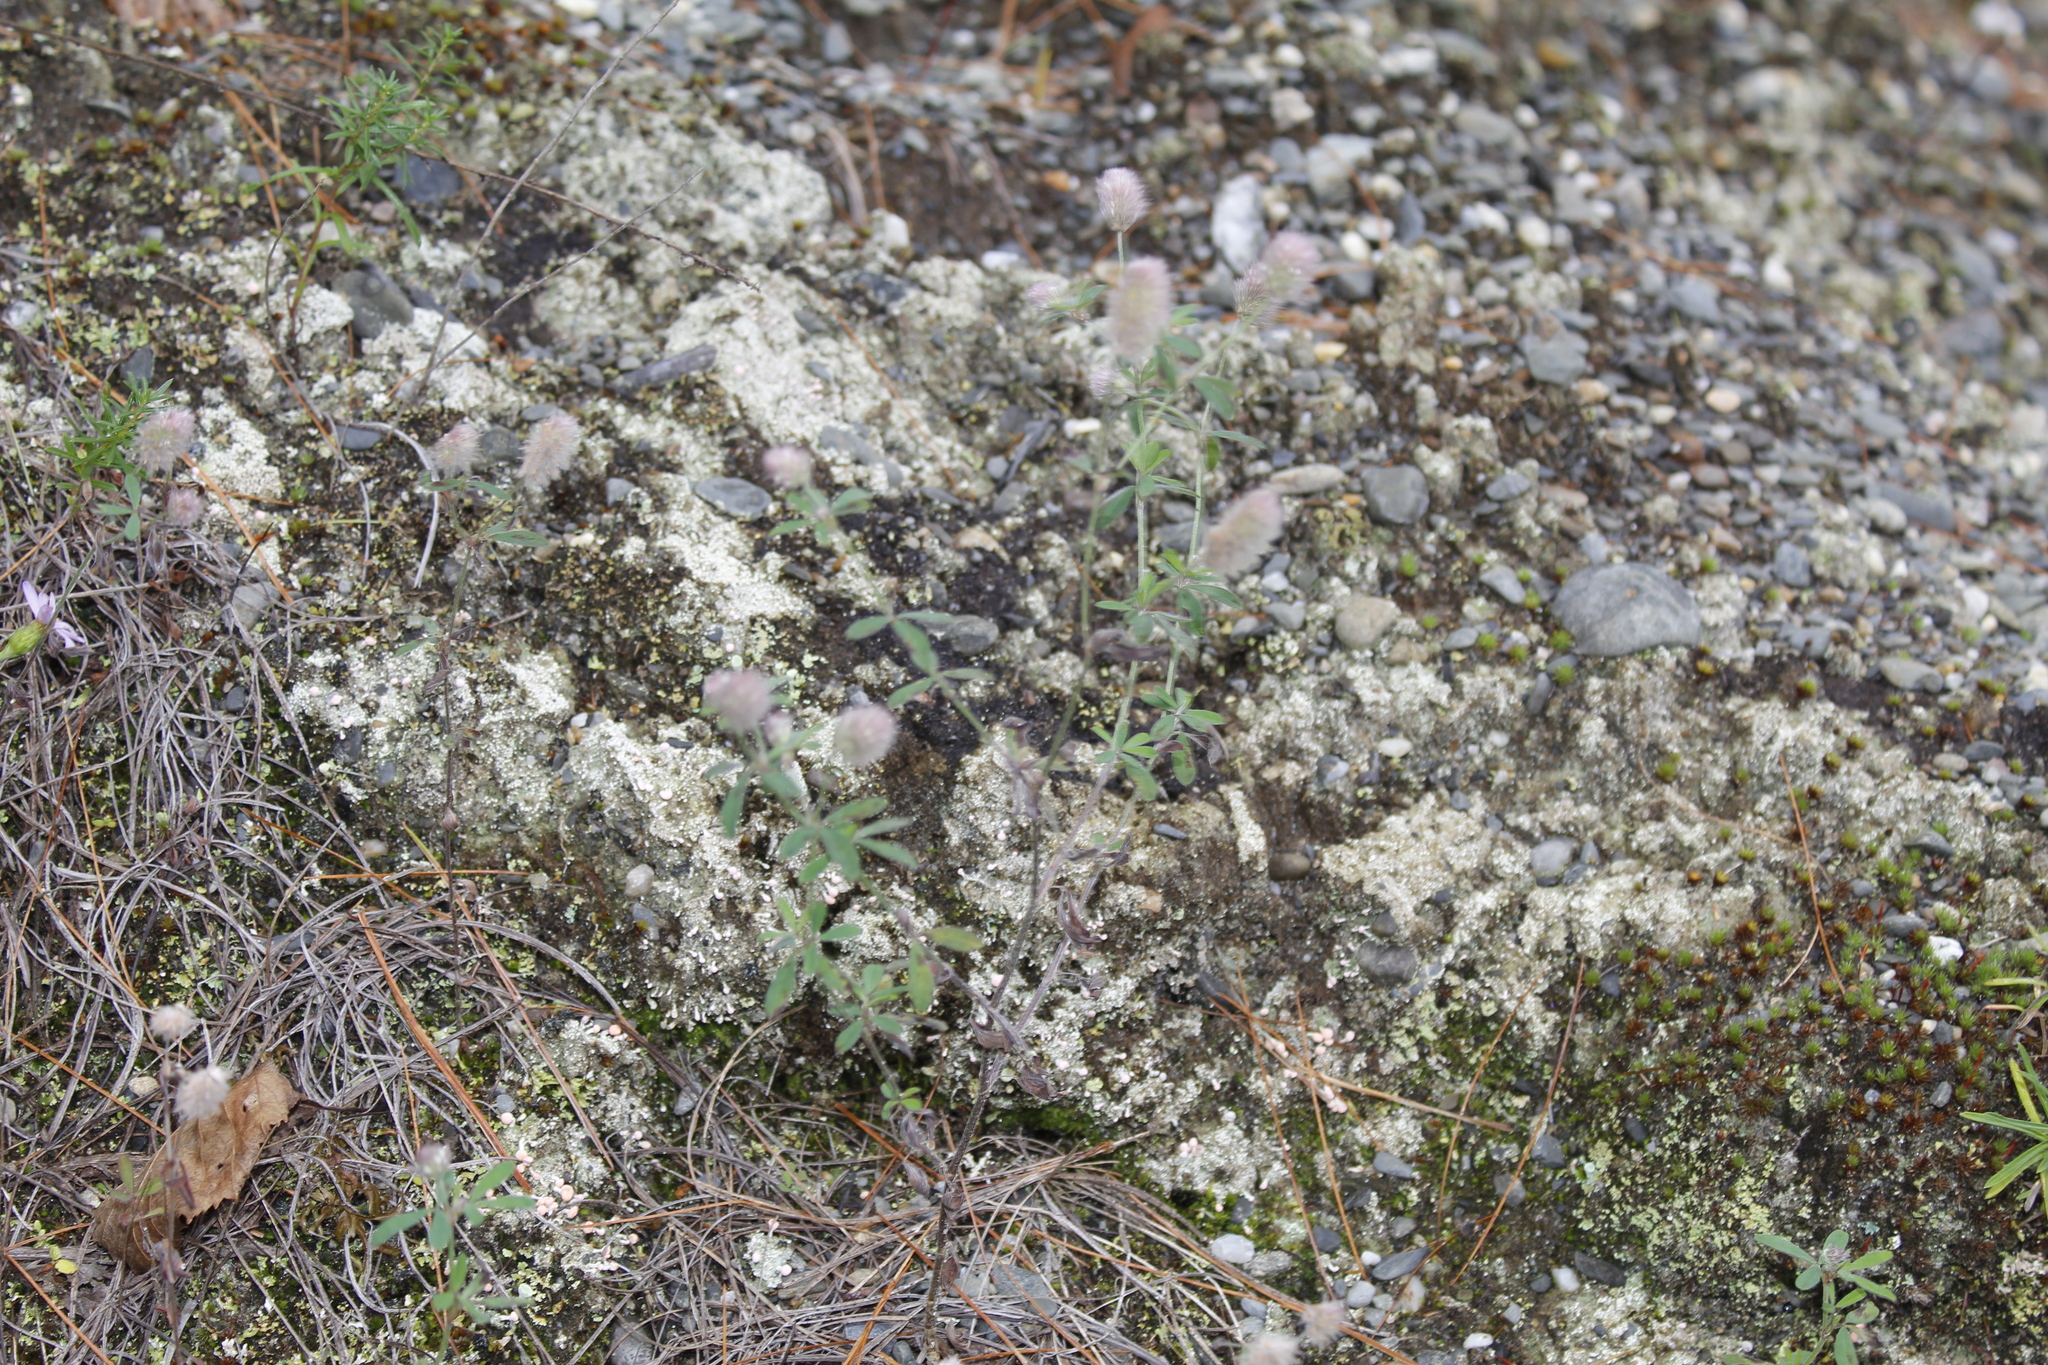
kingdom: Plantae
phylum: Tracheophyta
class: Magnoliopsida
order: Fabales
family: Fabaceae
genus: Trifolium
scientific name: Trifolium arvense
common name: Hare's-foot clover
